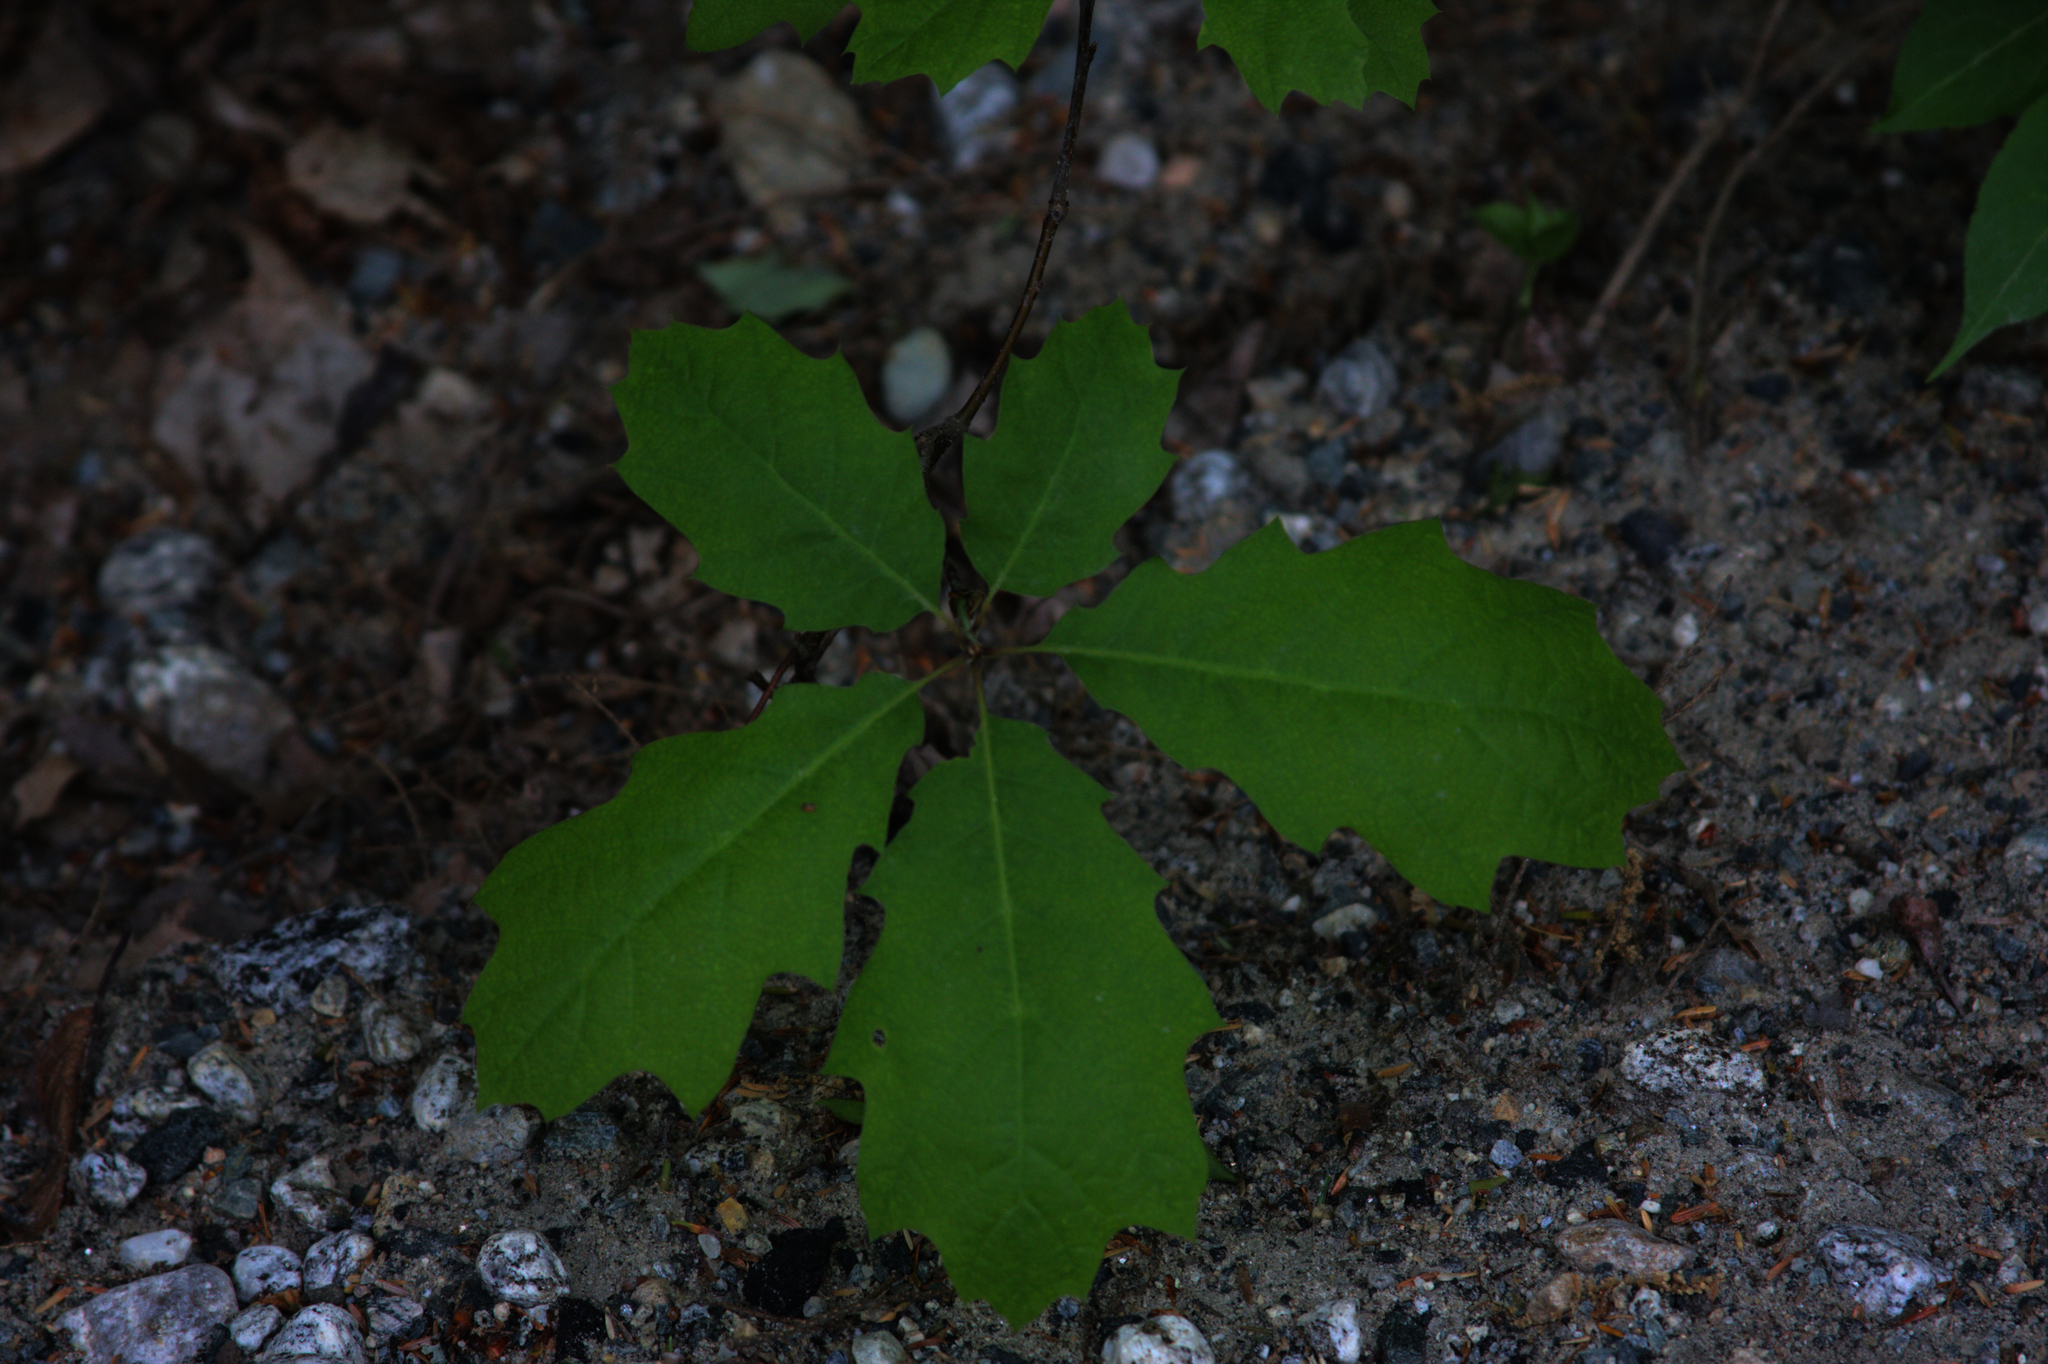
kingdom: Plantae
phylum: Tracheophyta
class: Magnoliopsida
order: Fagales
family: Fagaceae
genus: Quercus
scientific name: Quercus rubra
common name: Red oak
